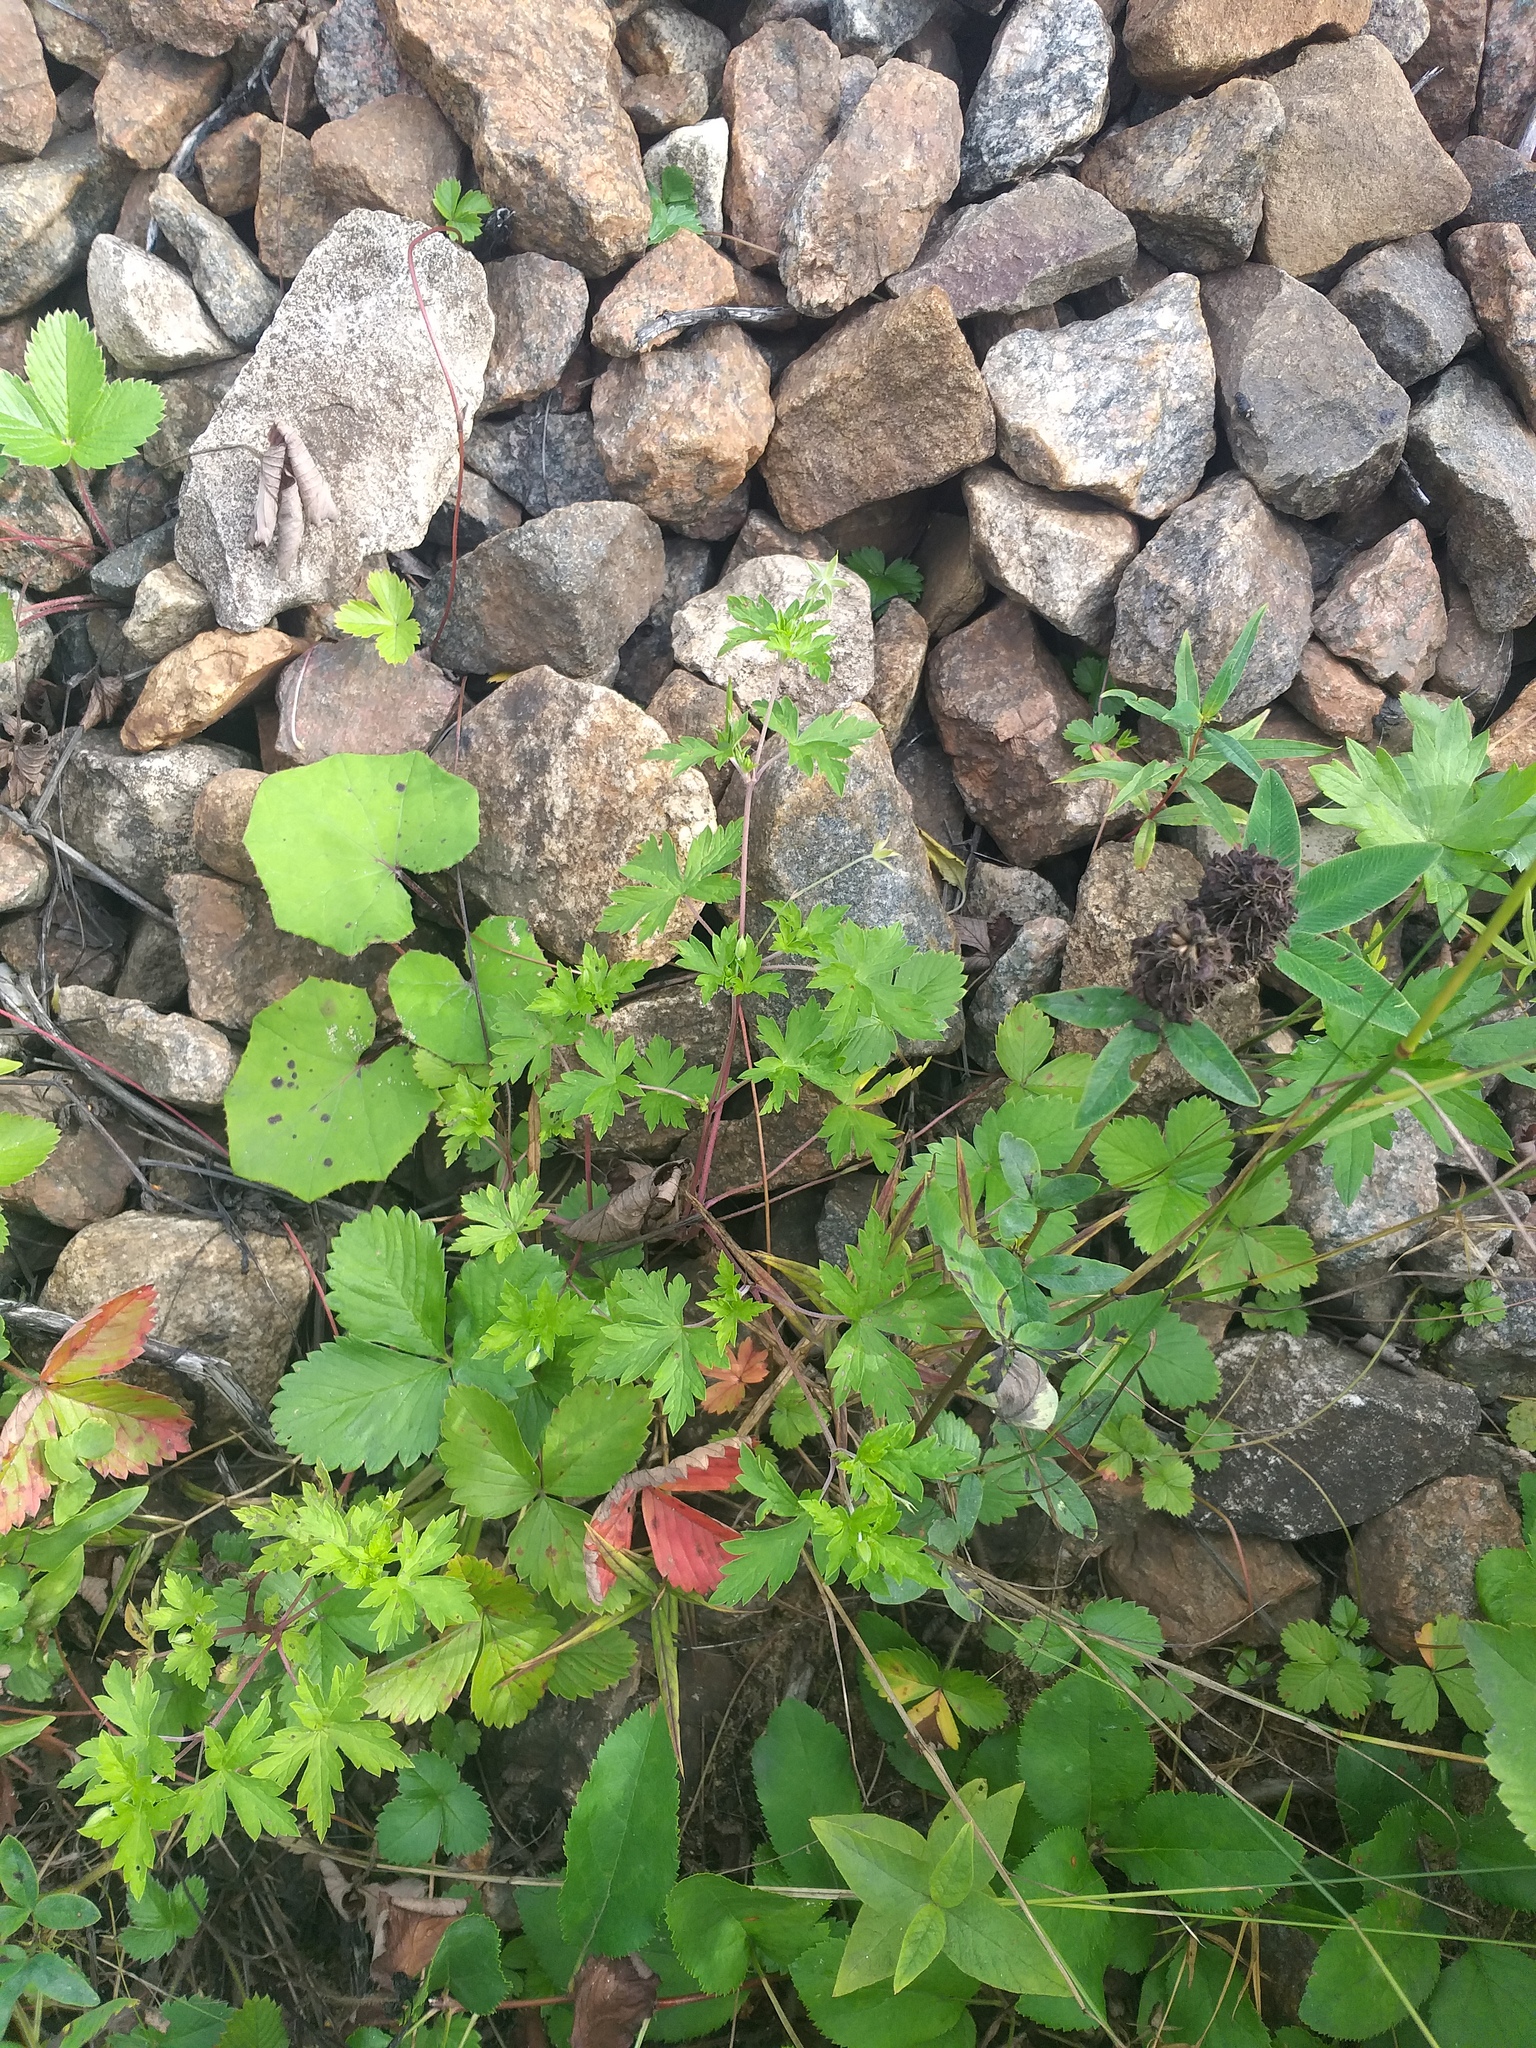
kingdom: Plantae
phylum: Tracheophyta
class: Magnoliopsida
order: Geraniales
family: Geraniaceae
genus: Geranium
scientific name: Geranium sibiricum
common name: Siberian crane's-bill
